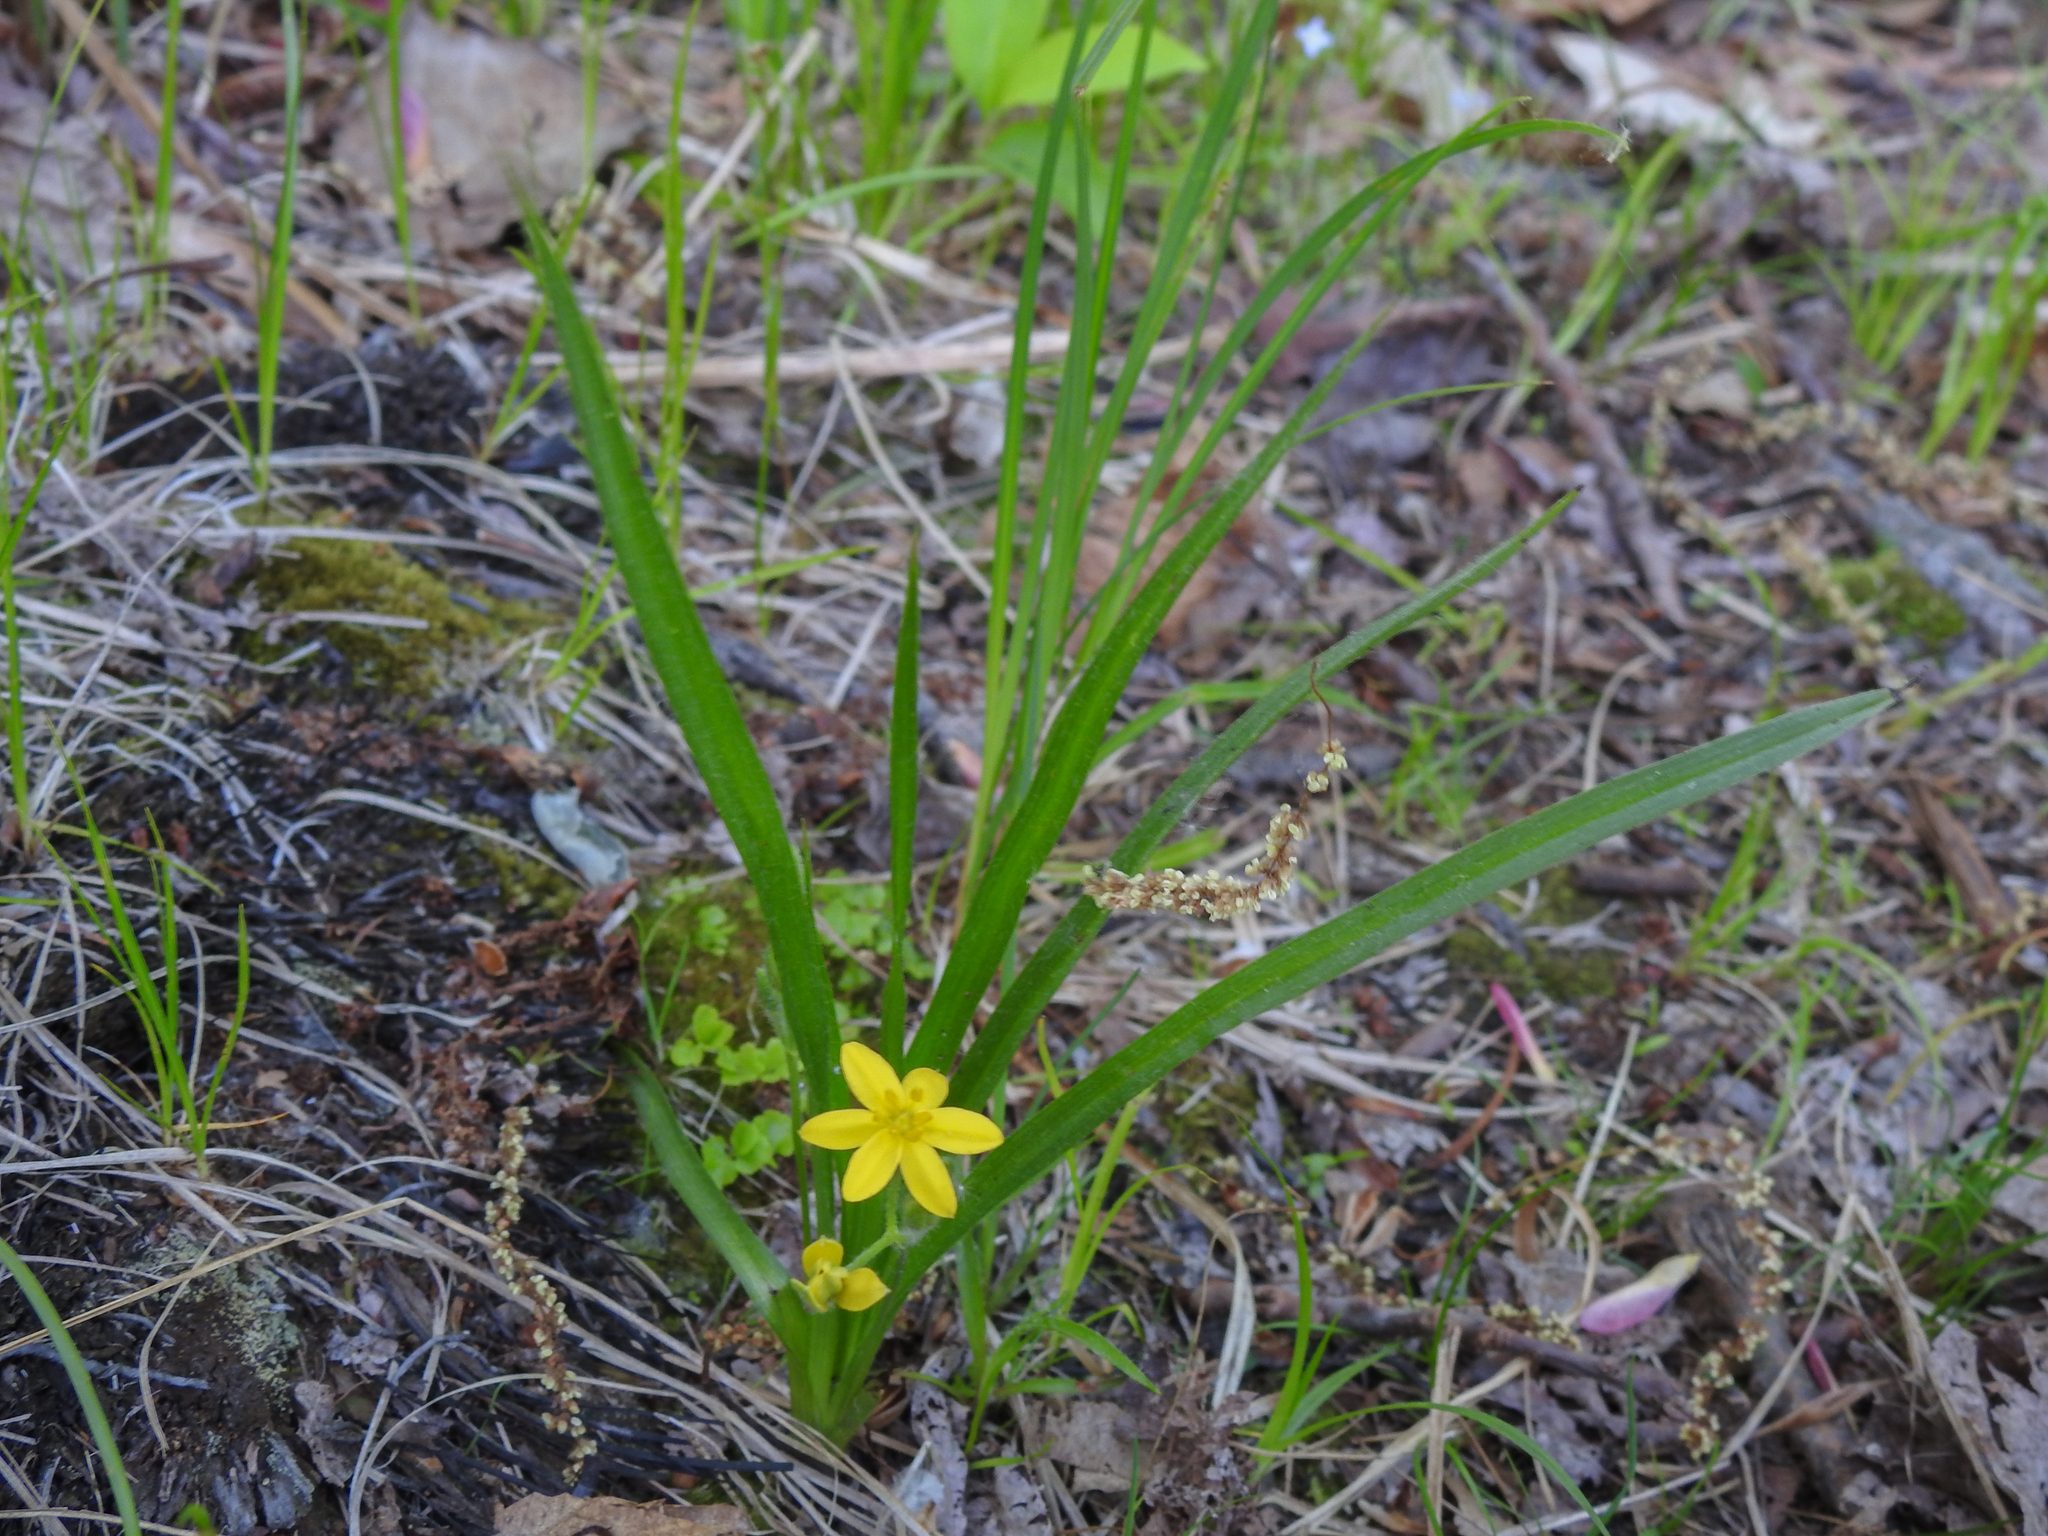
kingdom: Plantae
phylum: Tracheophyta
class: Liliopsida
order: Asparagales
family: Hypoxidaceae
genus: Hypoxis
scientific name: Hypoxis hirsuta
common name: Common goldstar
